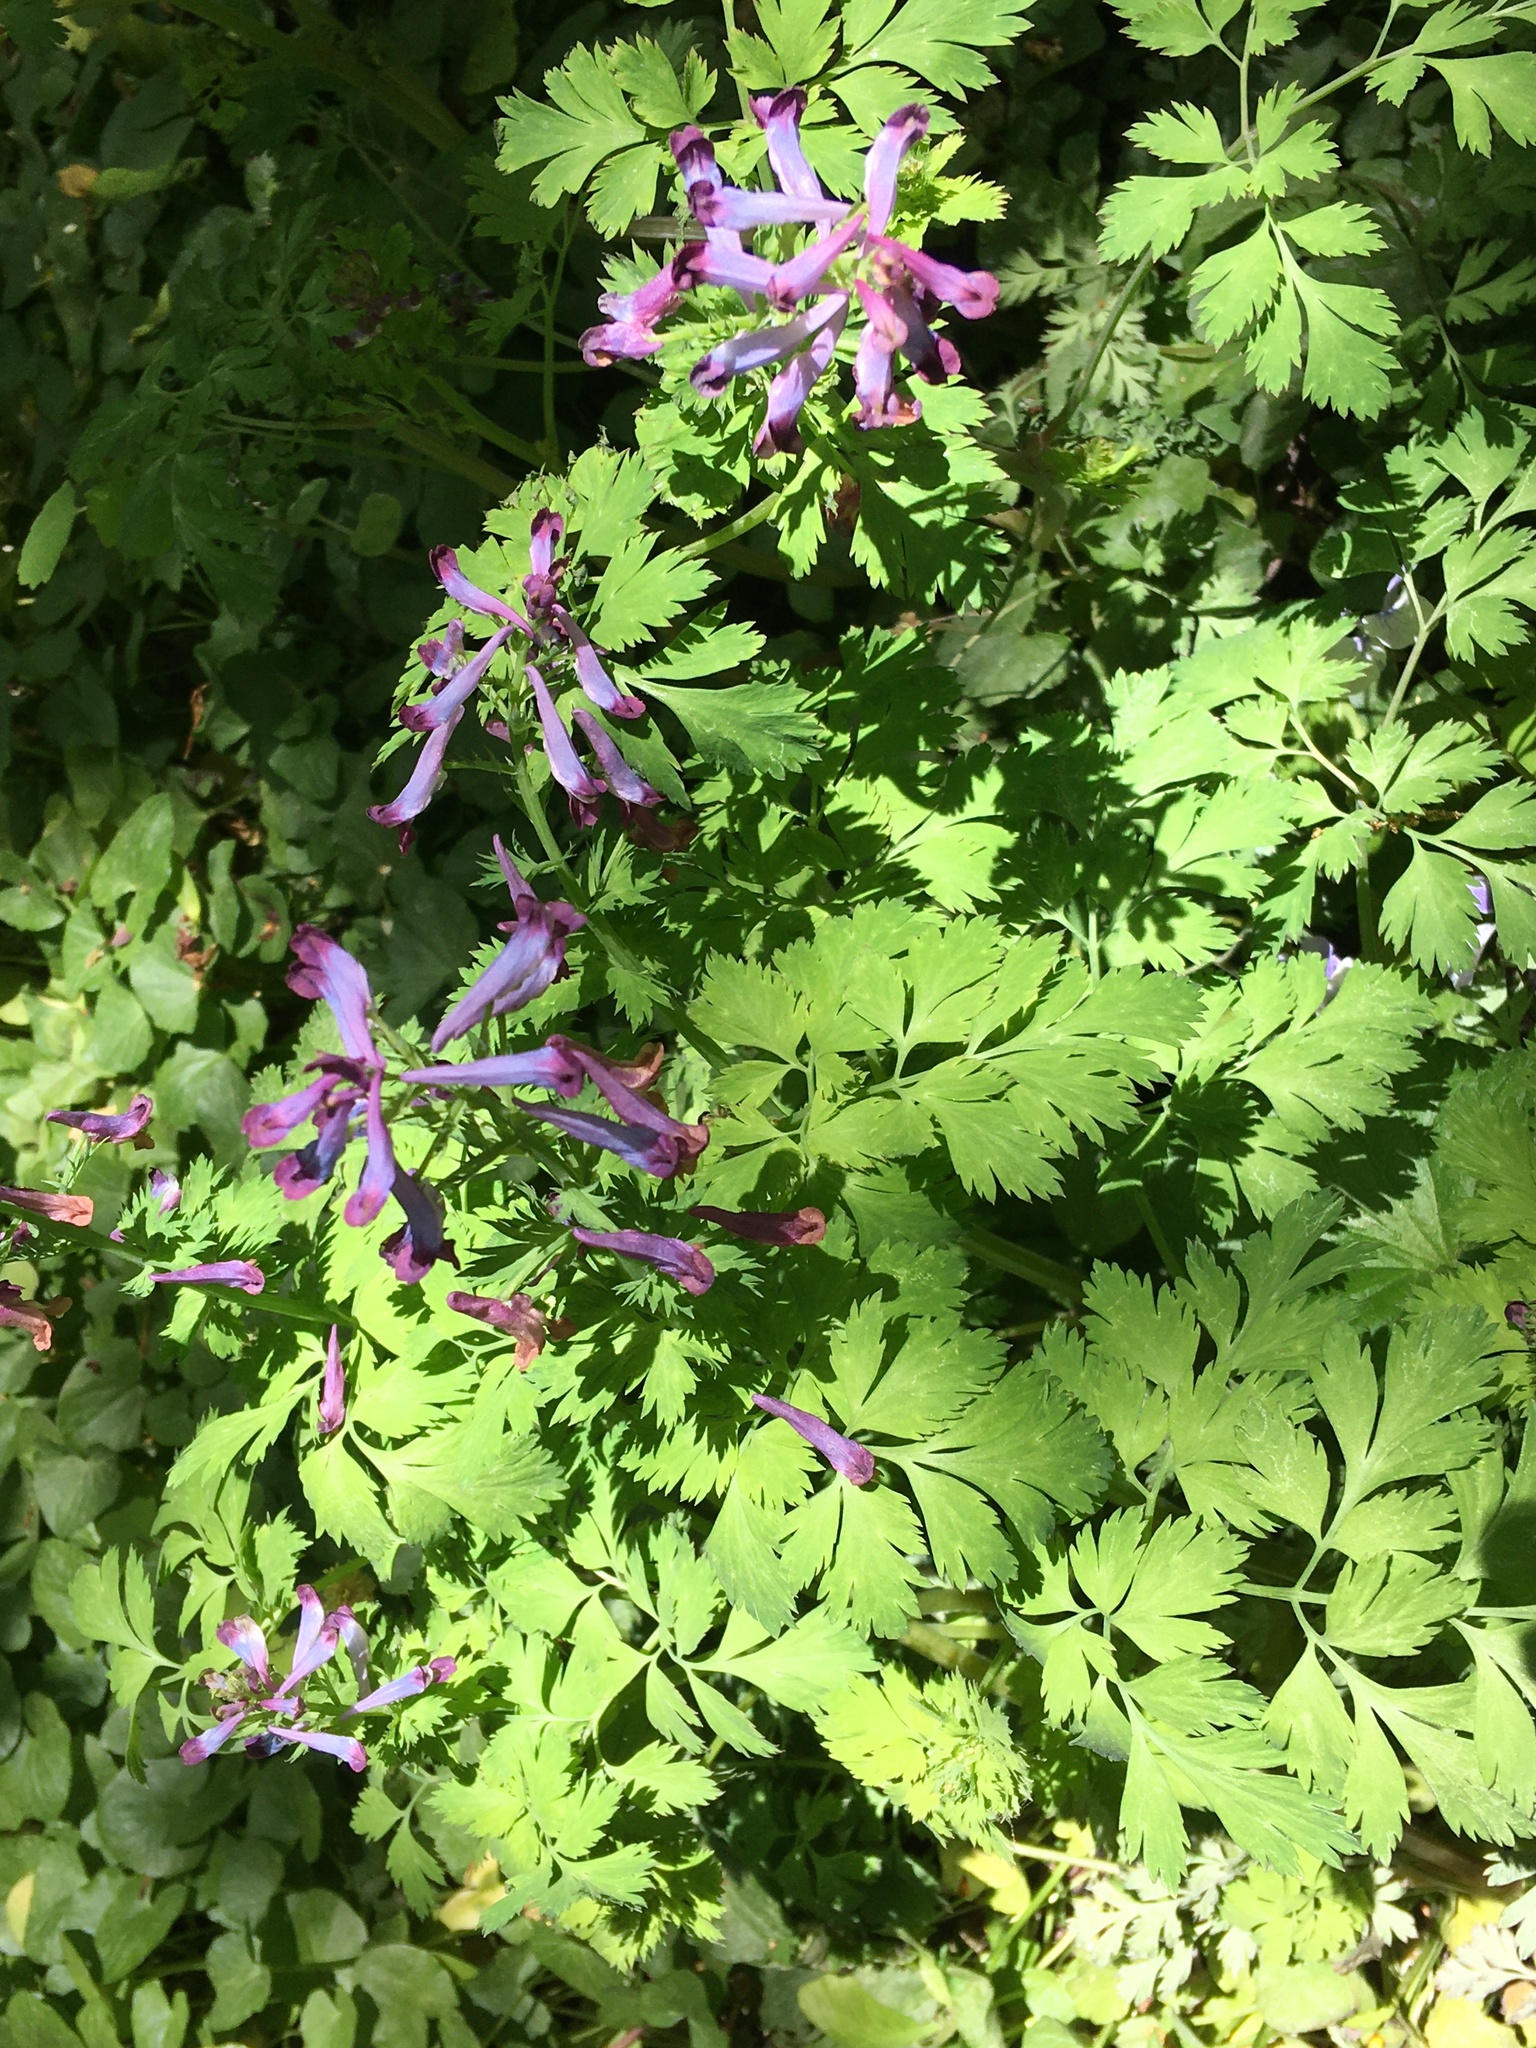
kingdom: Plantae
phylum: Tracheophyta
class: Magnoliopsida
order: Ranunculales
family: Papaveraceae
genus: Corydalis
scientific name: Corydalis incisa
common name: Incised fumewort
